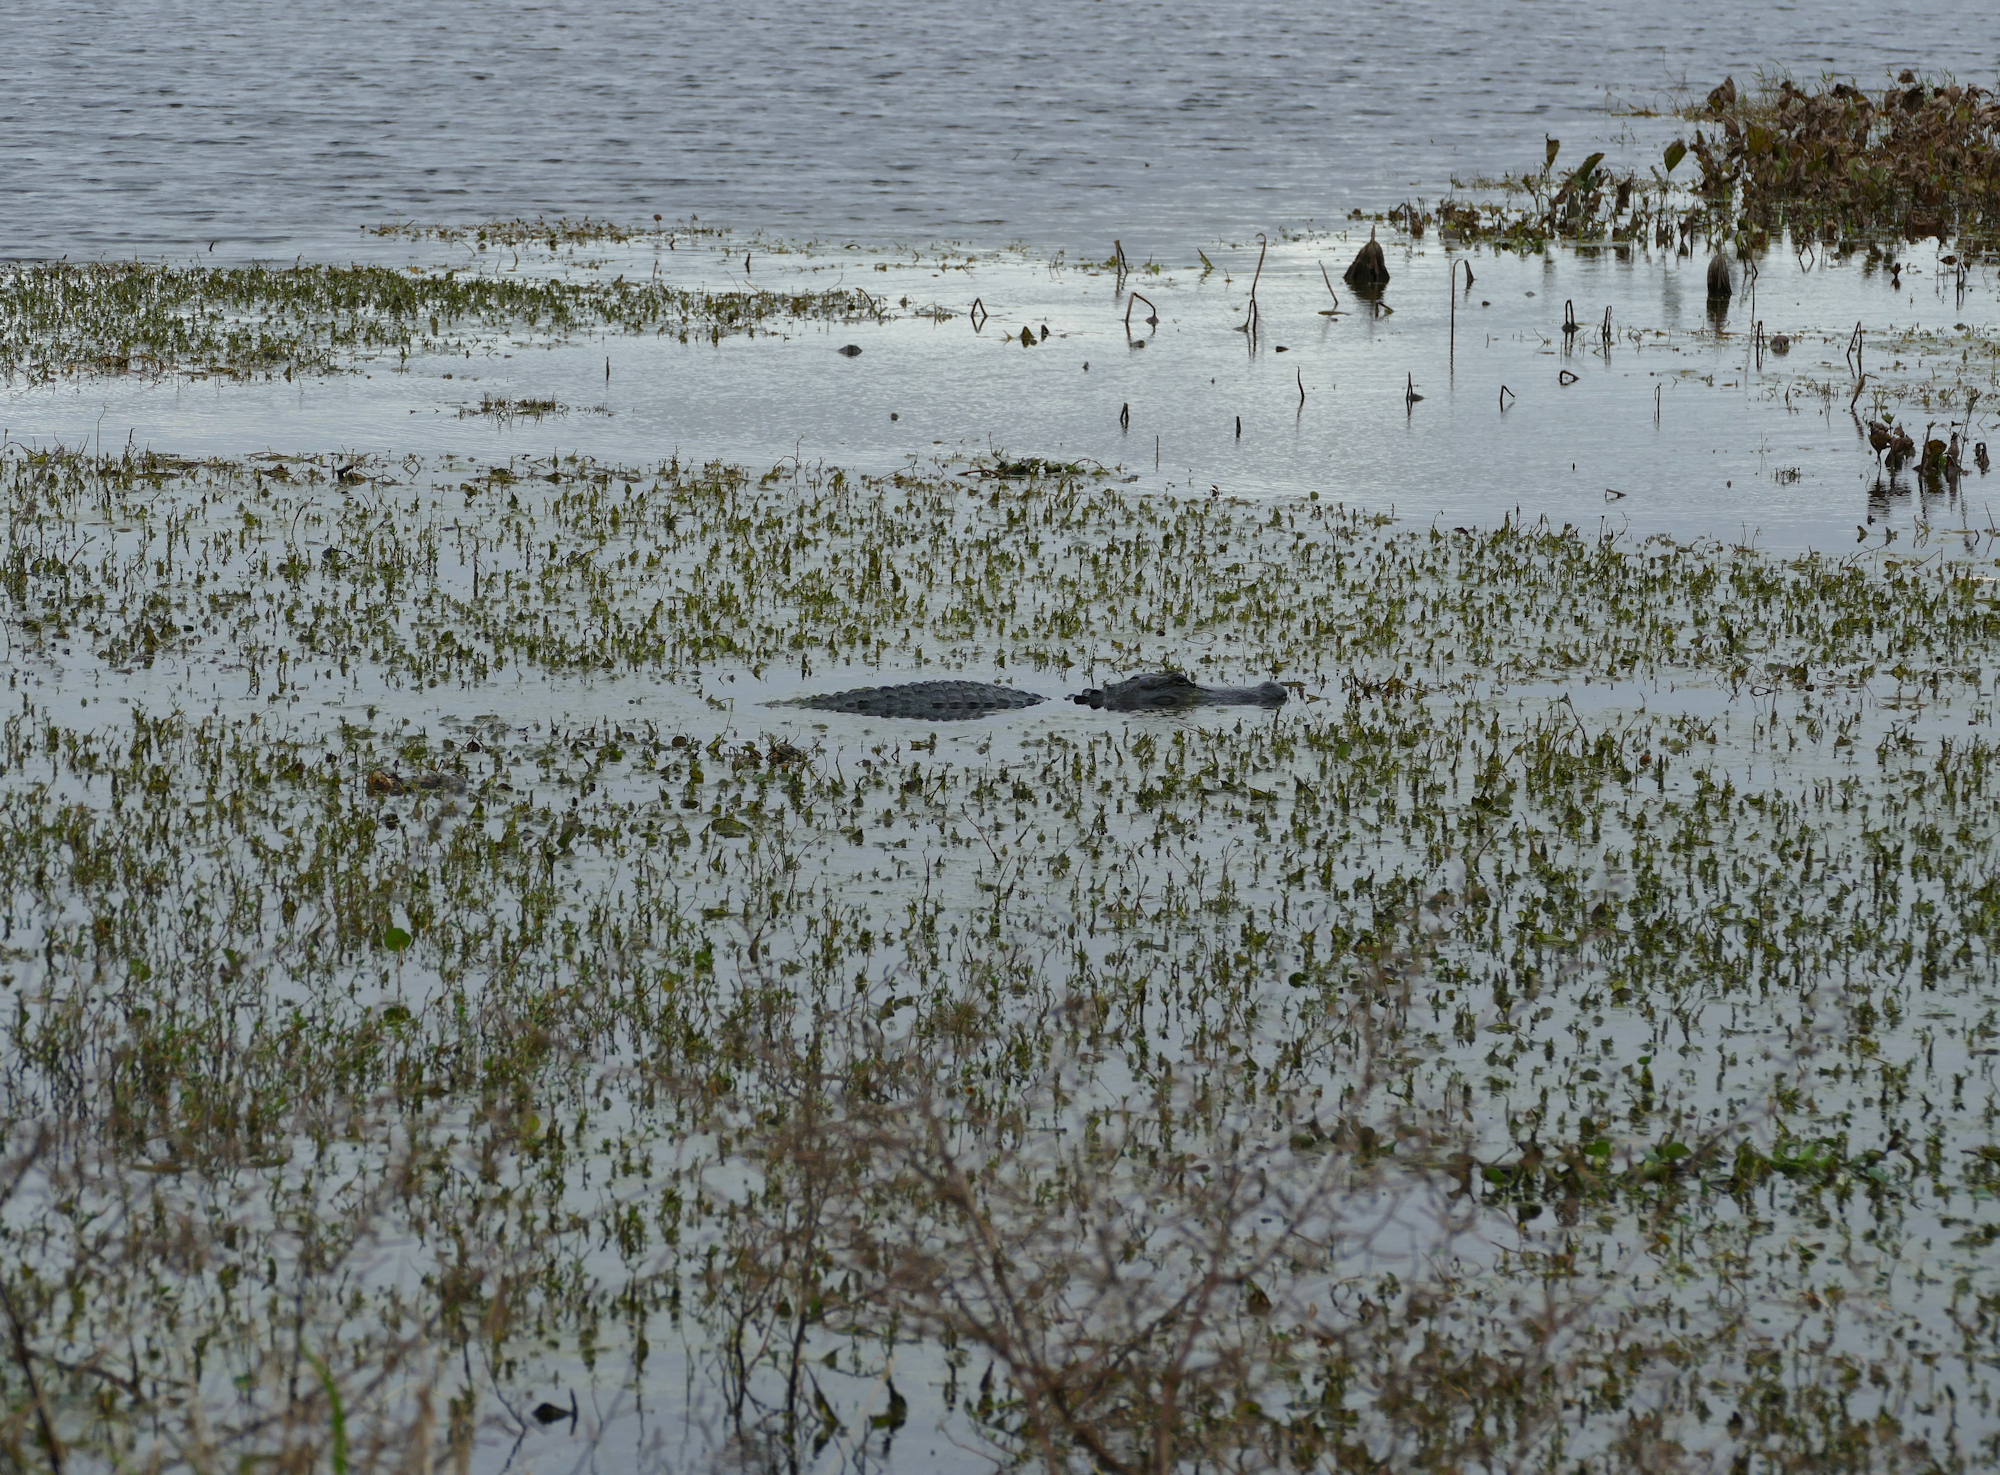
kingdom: Animalia
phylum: Chordata
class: Crocodylia
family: Alligatoridae
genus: Alligator
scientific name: Alligator mississippiensis
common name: American alligator
